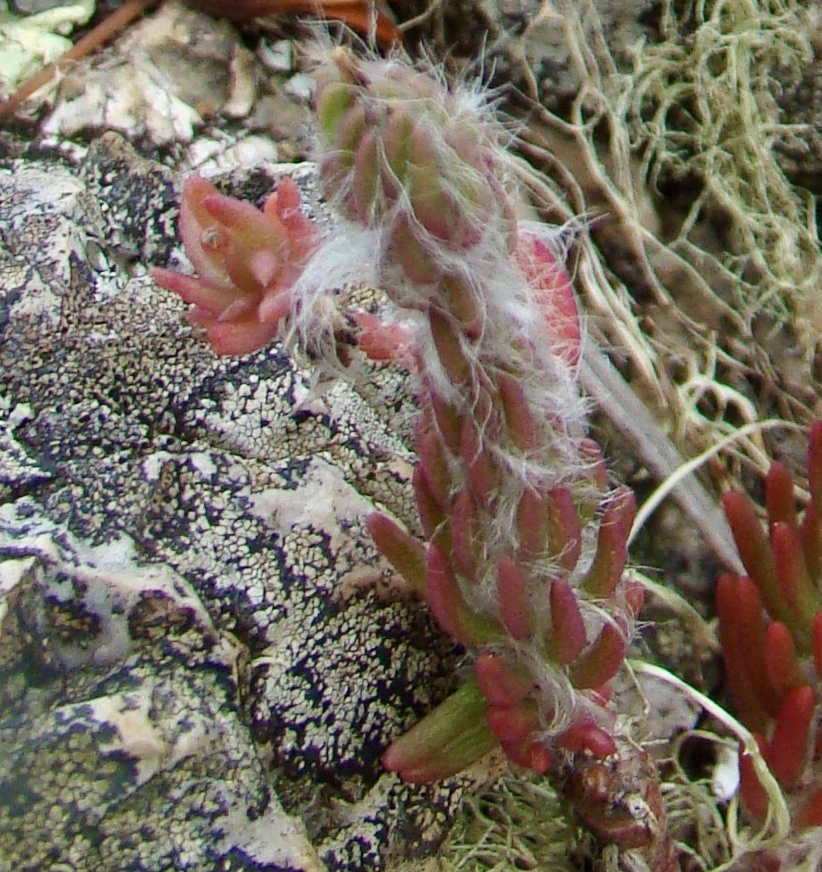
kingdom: Plantae
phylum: Tracheophyta
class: Magnoliopsida
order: Caryophyllales
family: Portulacaceae
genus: Portulaca
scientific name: Portulaca elatior
